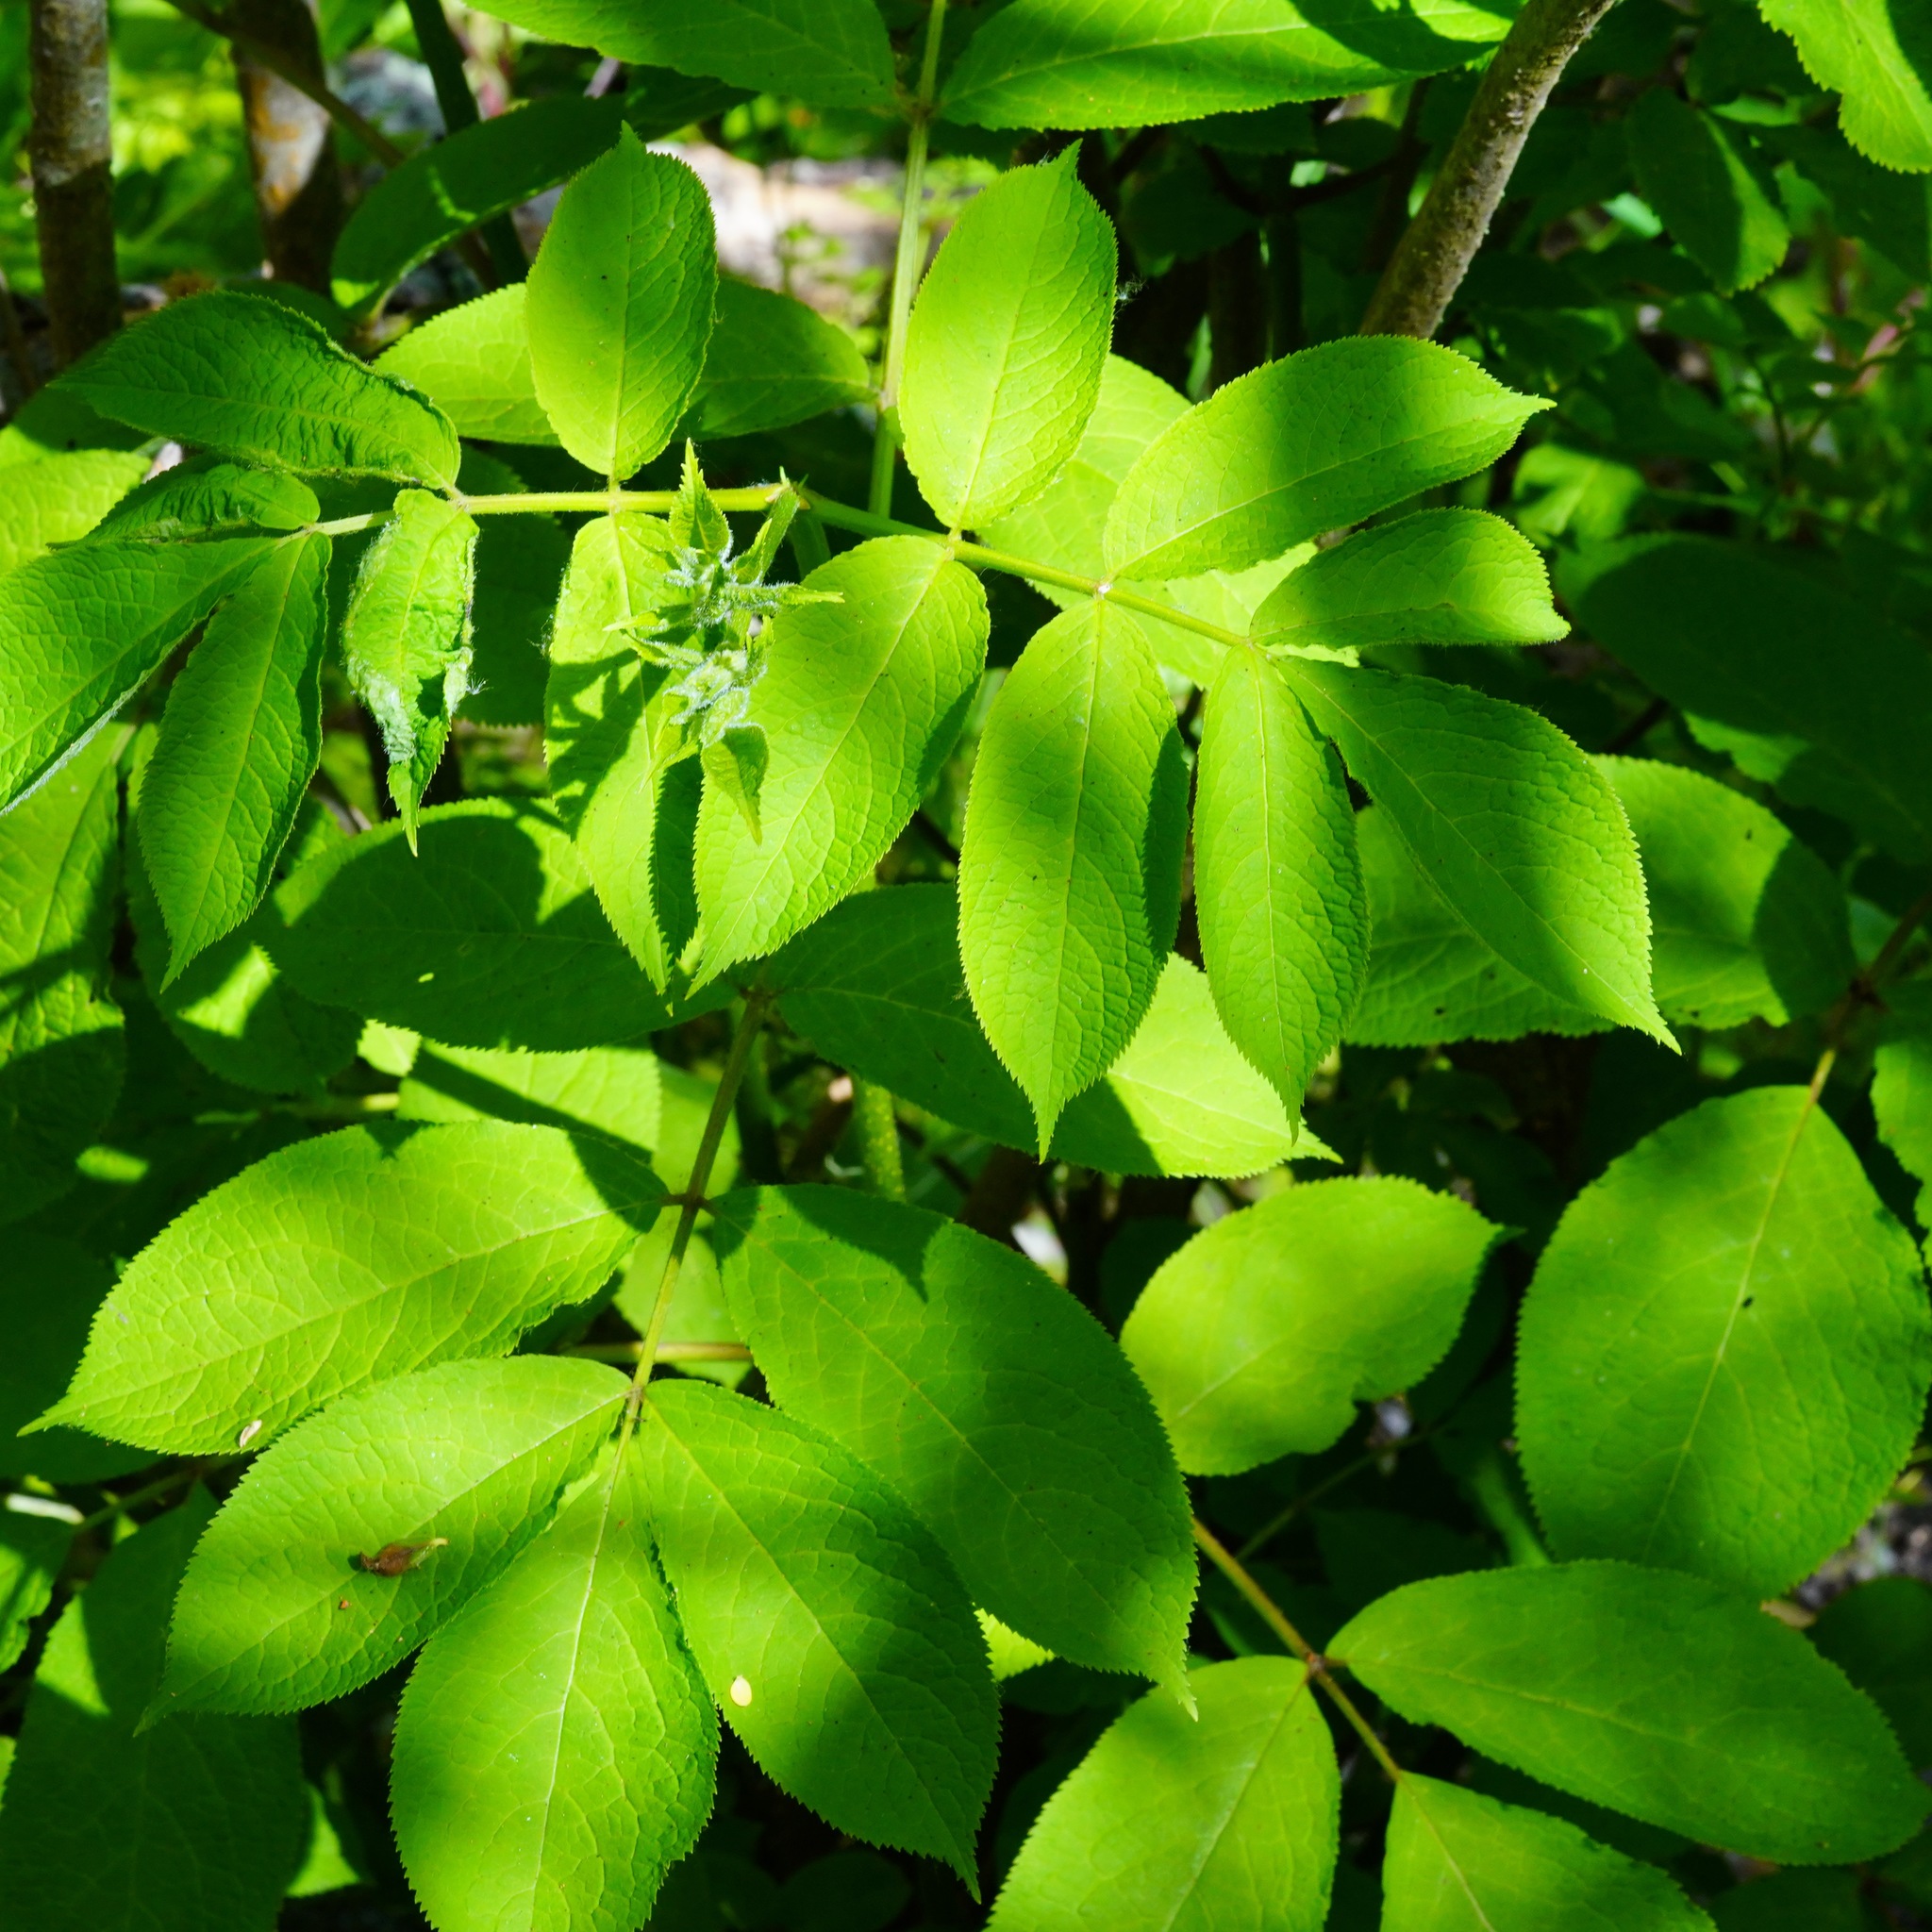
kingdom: Plantae
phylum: Tracheophyta
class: Magnoliopsida
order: Dipsacales
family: Viburnaceae
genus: Sambucus
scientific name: Sambucus racemosa
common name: Red-berried elder
